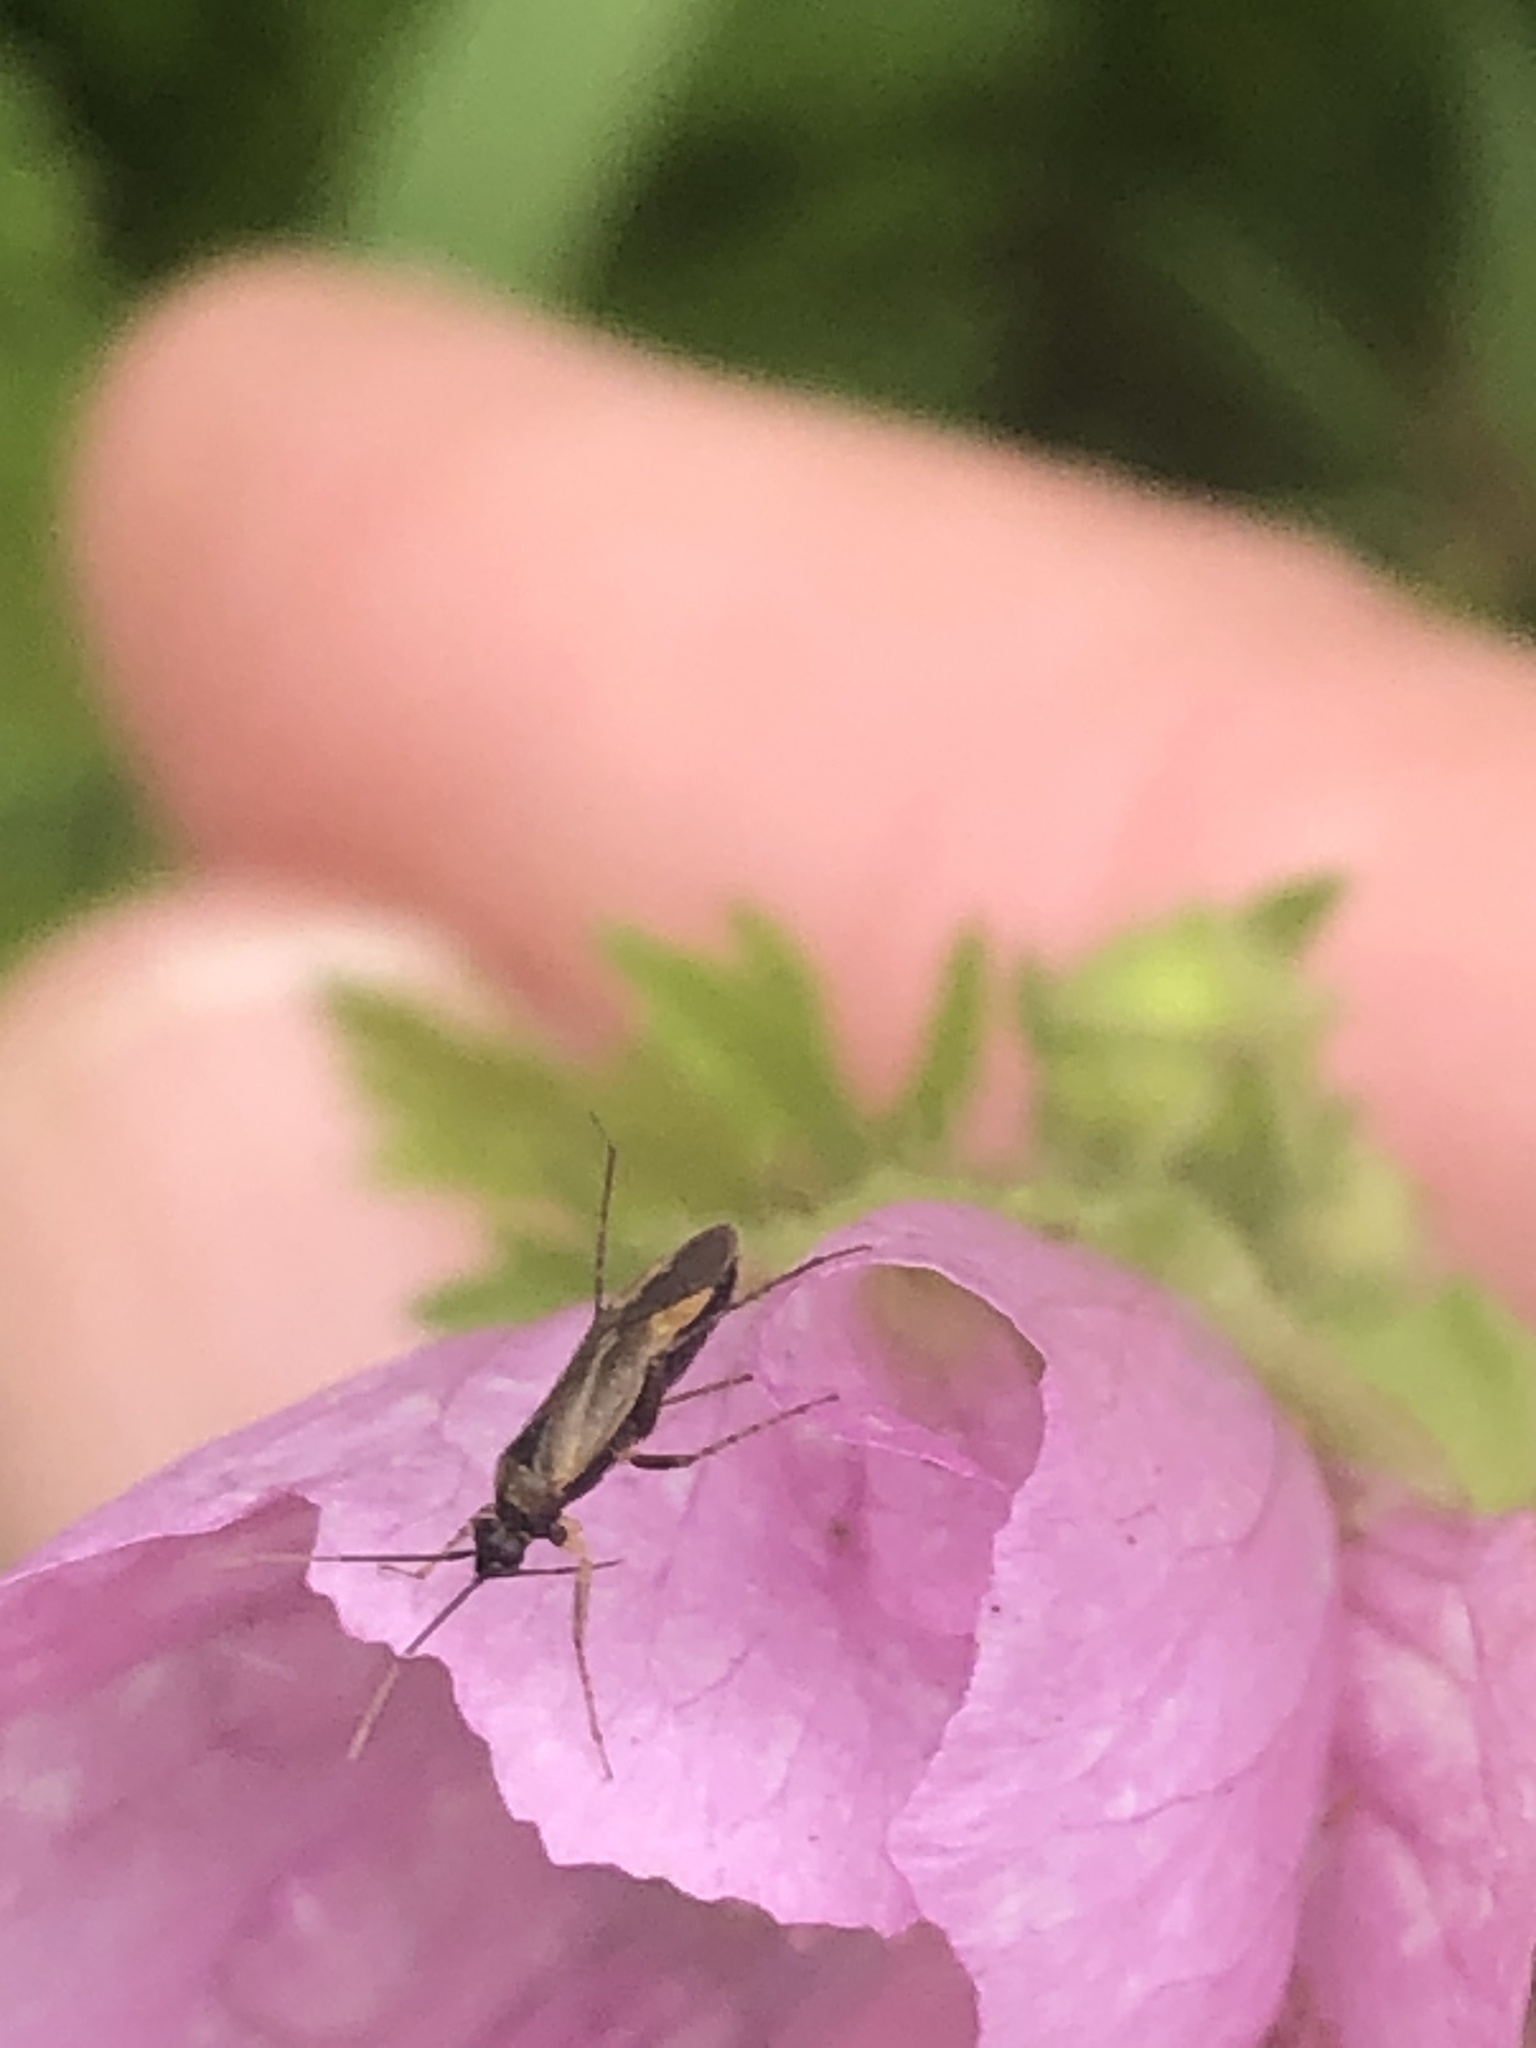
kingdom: Animalia
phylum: Arthropoda
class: Insecta
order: Hemiptera
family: Miridae
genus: Plagiognathus
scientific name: Plagiognathus arbustorum
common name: Plant bug
